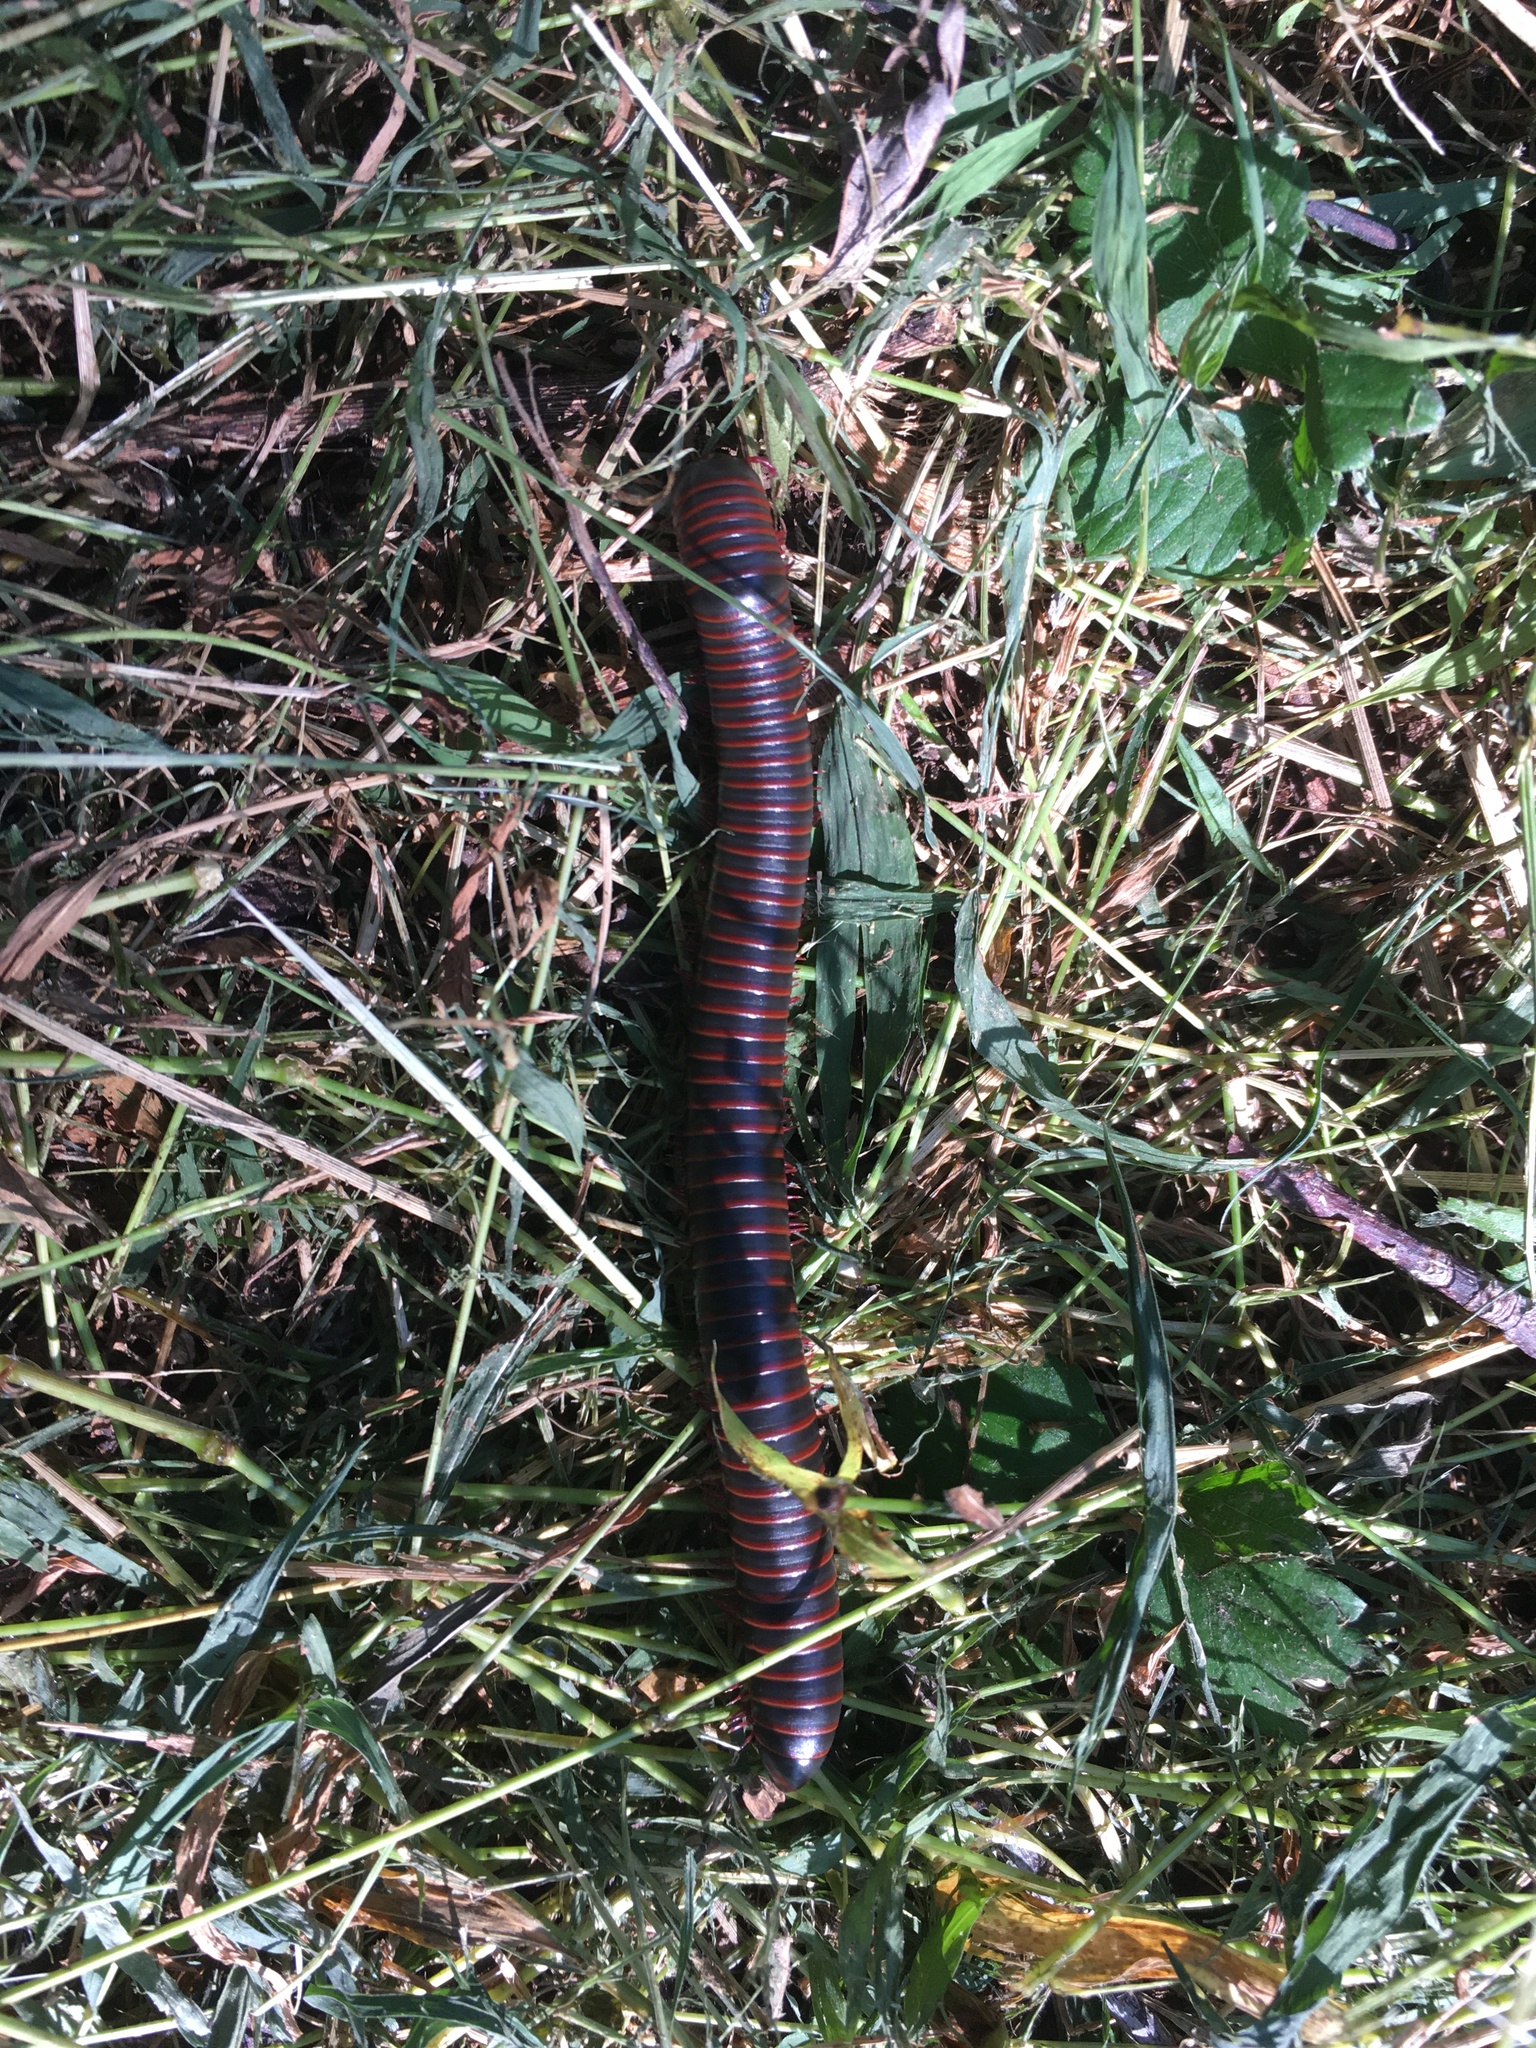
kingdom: Animalia
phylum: Arthropoda
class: Diplopoda
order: Spirobolida
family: Spirobolidae
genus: Narceus
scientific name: Narceus
